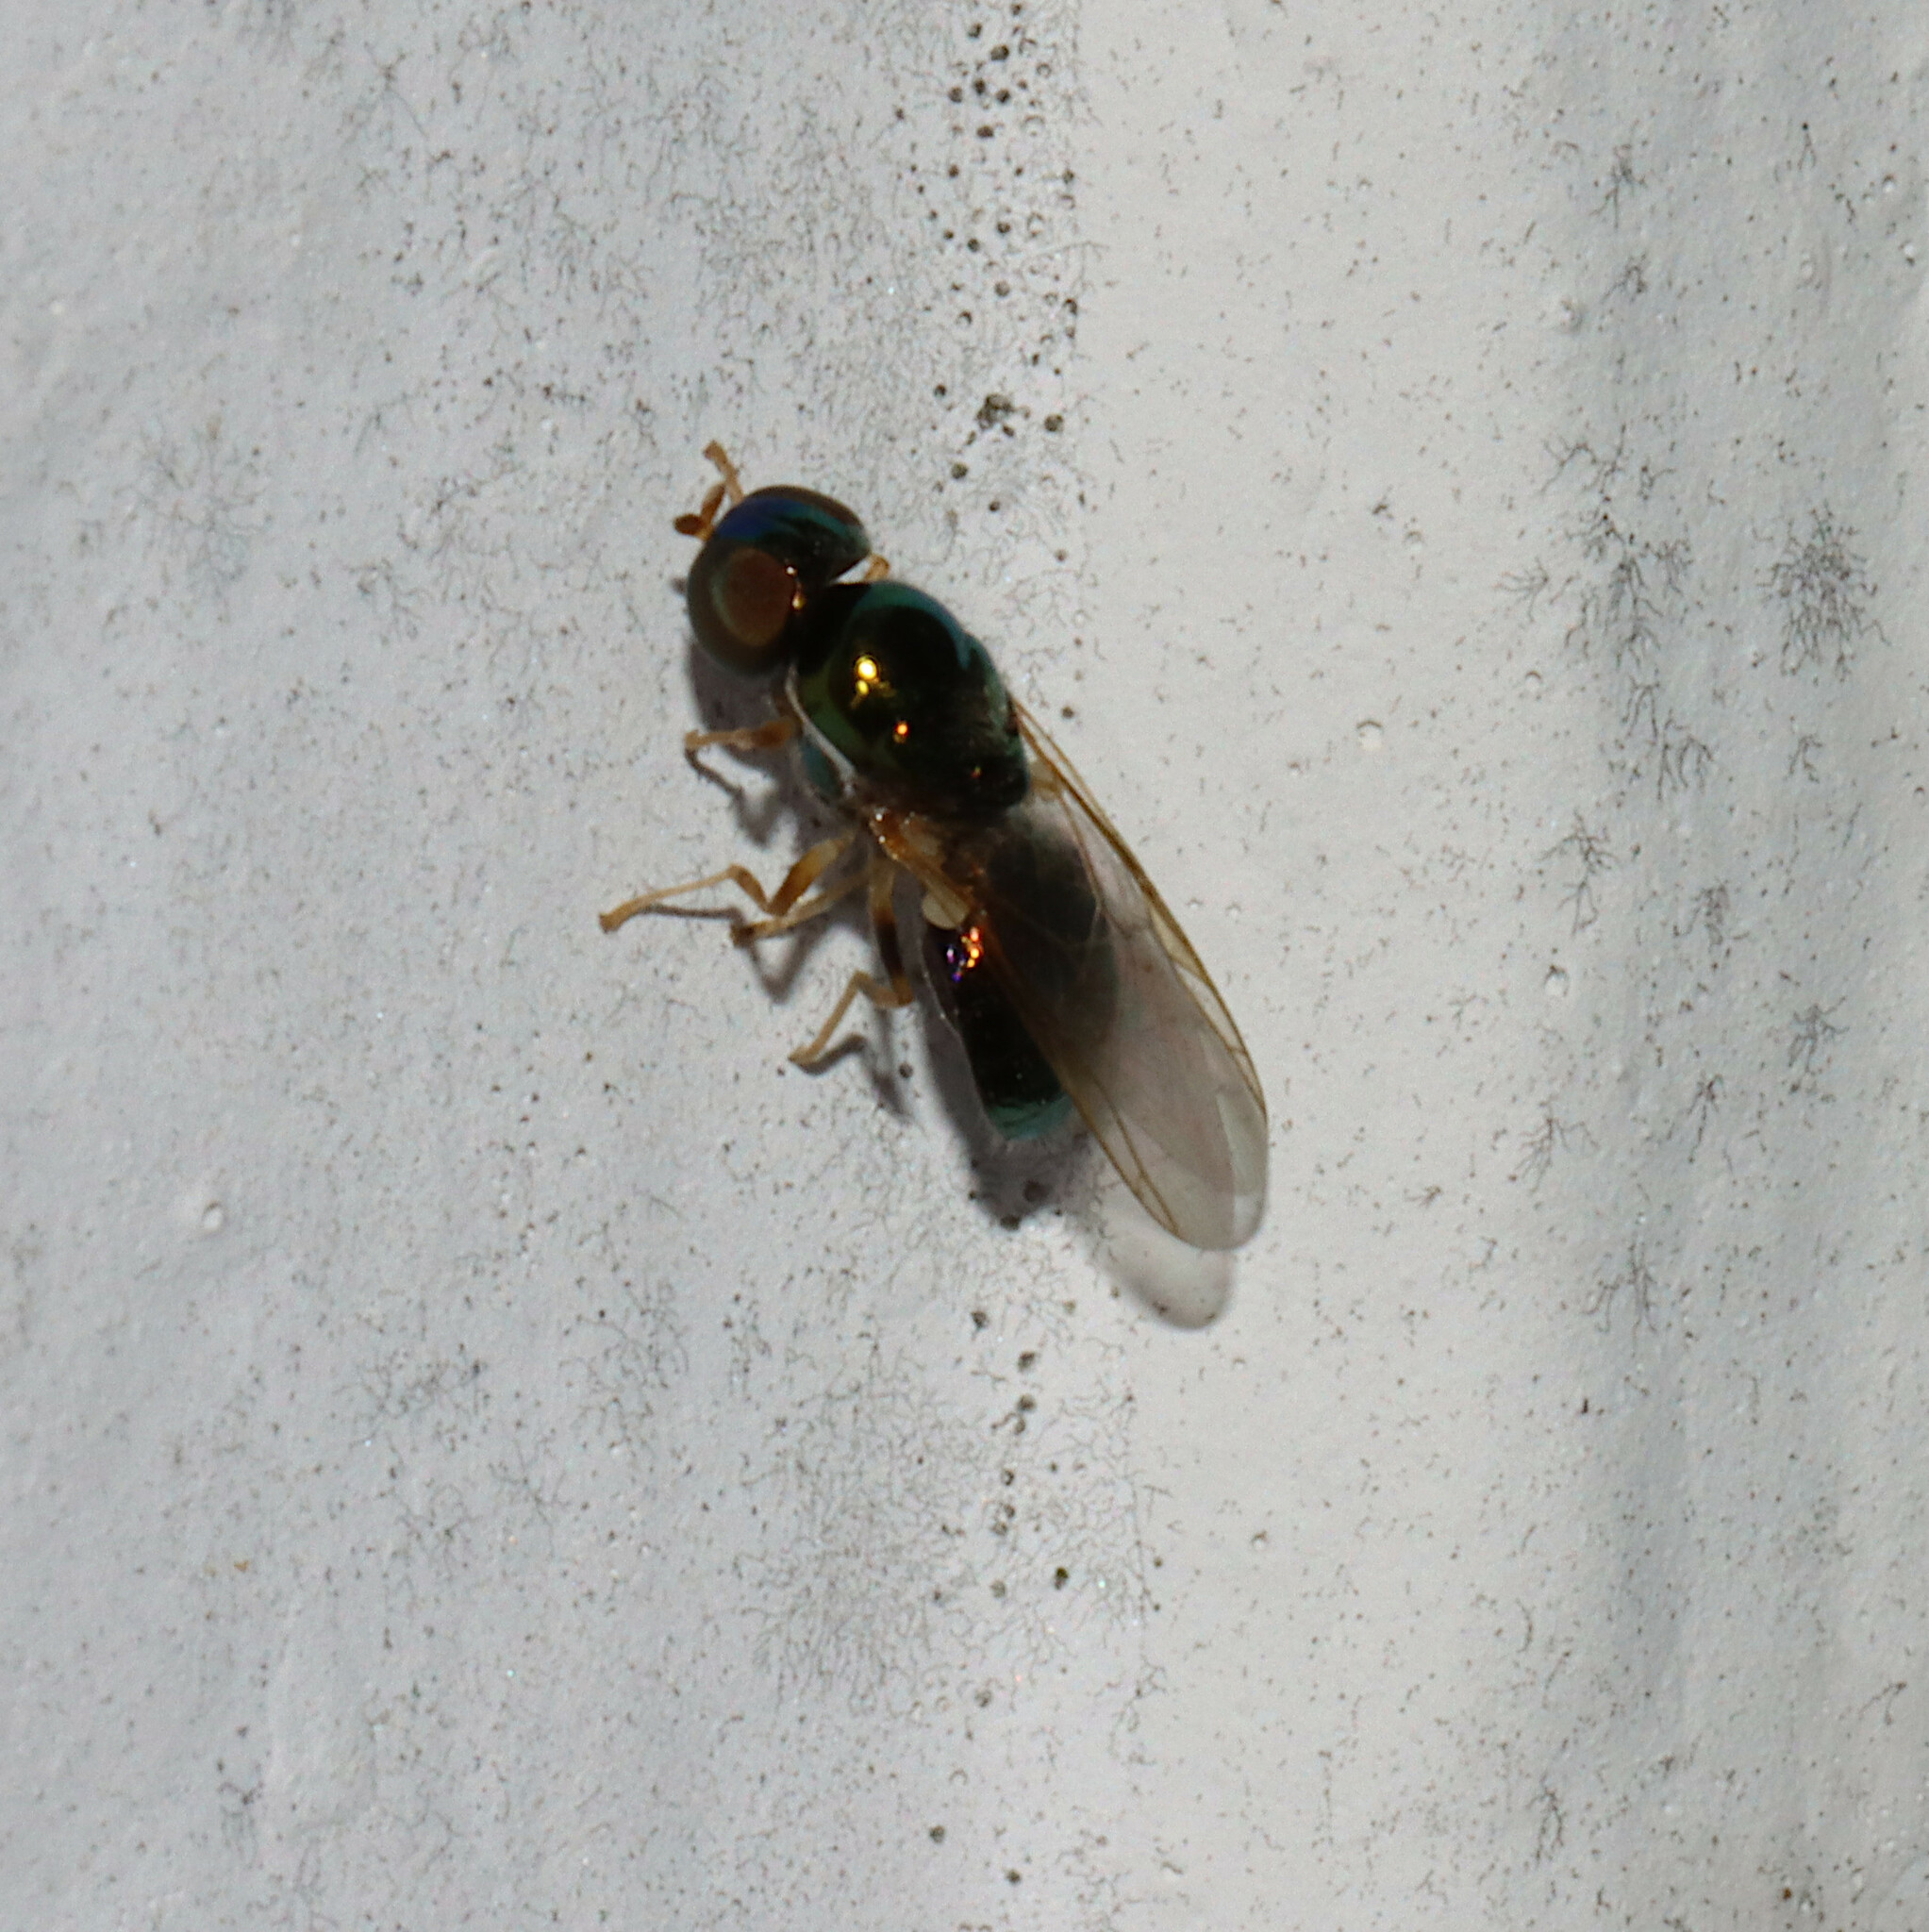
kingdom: Animalia
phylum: Arthropoda
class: Insecta
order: Diptera
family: Stratiomyidae
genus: Microchrysa
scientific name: Microchrysa flavicornis
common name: Soldier fly
